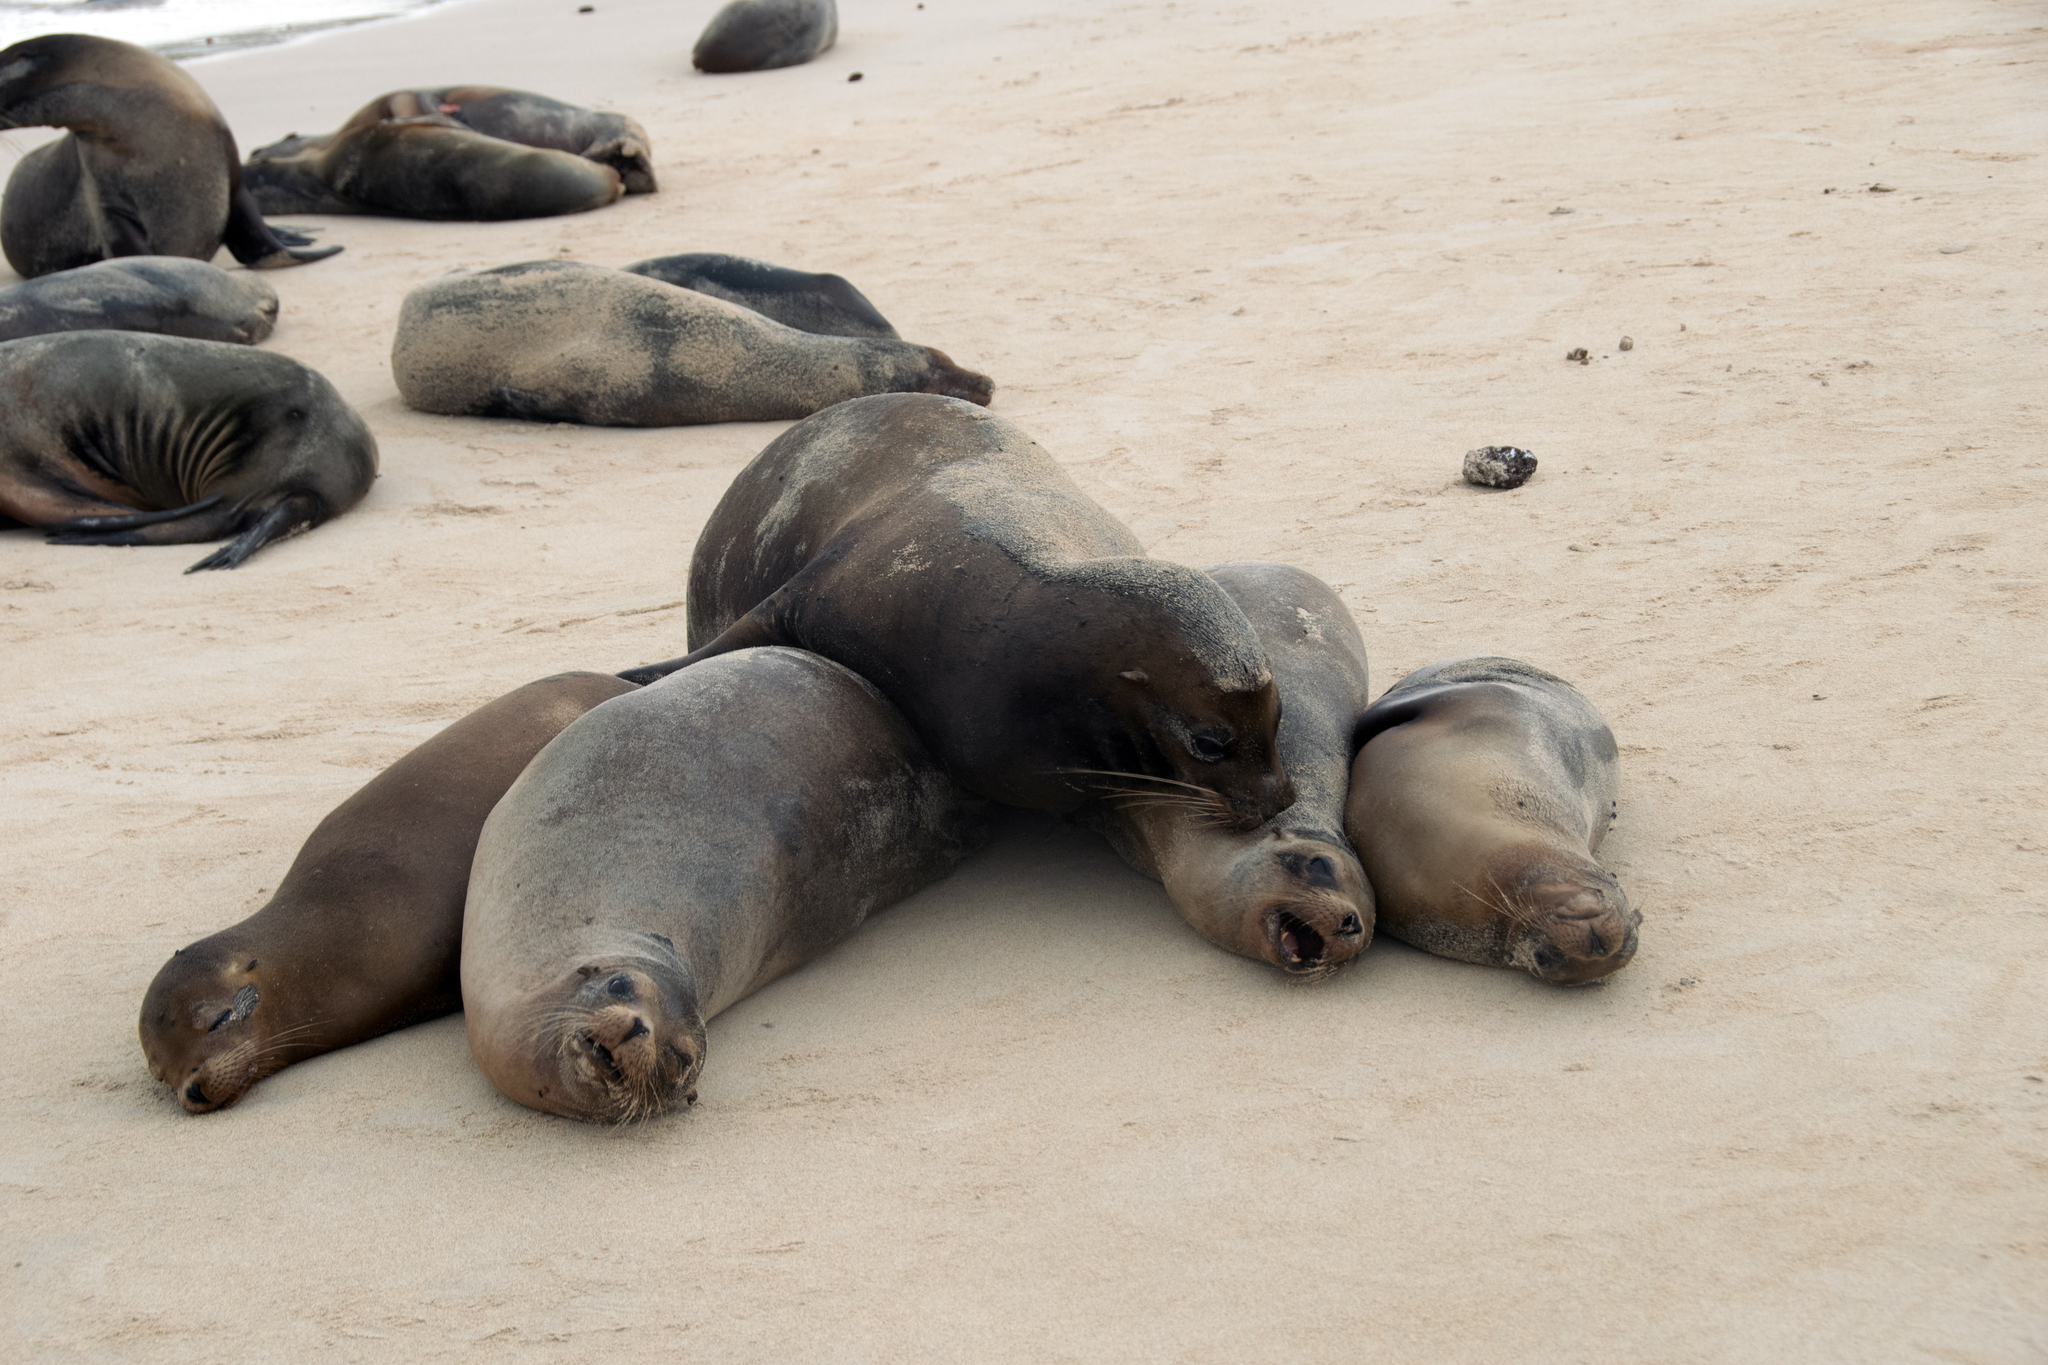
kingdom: Animalia
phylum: Chordata
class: Mammalia
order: Carnivora
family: Otariidae
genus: Zalophus
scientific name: Zalophus wollebaeki
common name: Galapagos sea lion
